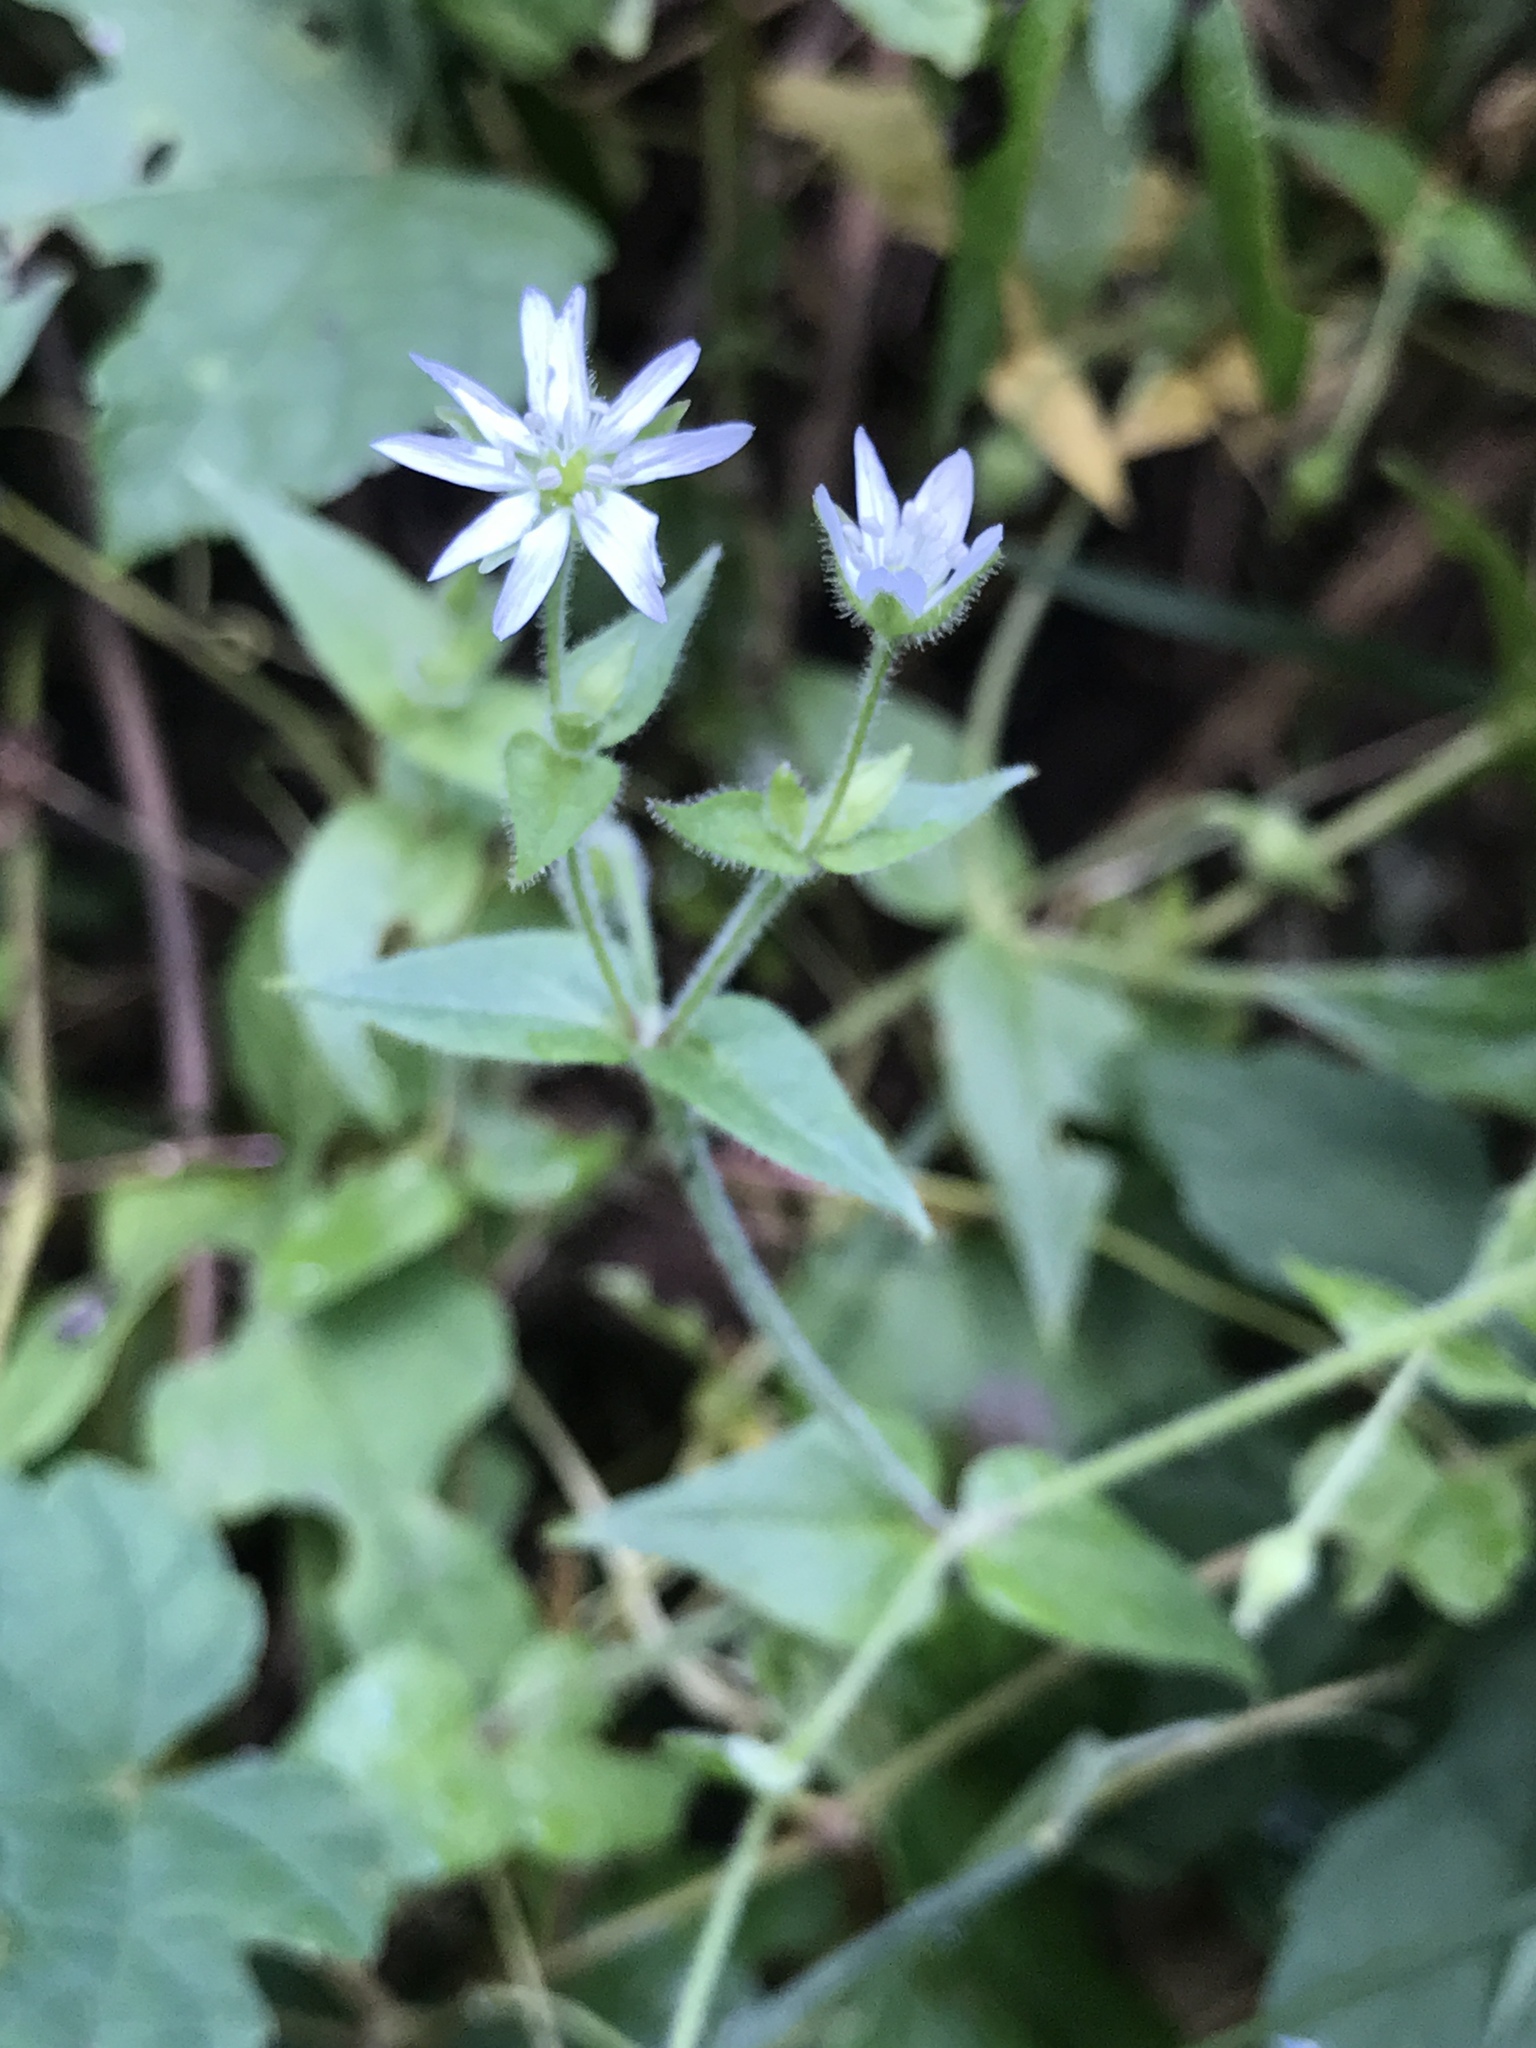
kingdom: Plantae
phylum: Tracheophyta
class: Magnoliopsida
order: Caryophyllales
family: Caryophyllaceae
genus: Stellaria
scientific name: Stellaria pubera
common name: Star chickweed
